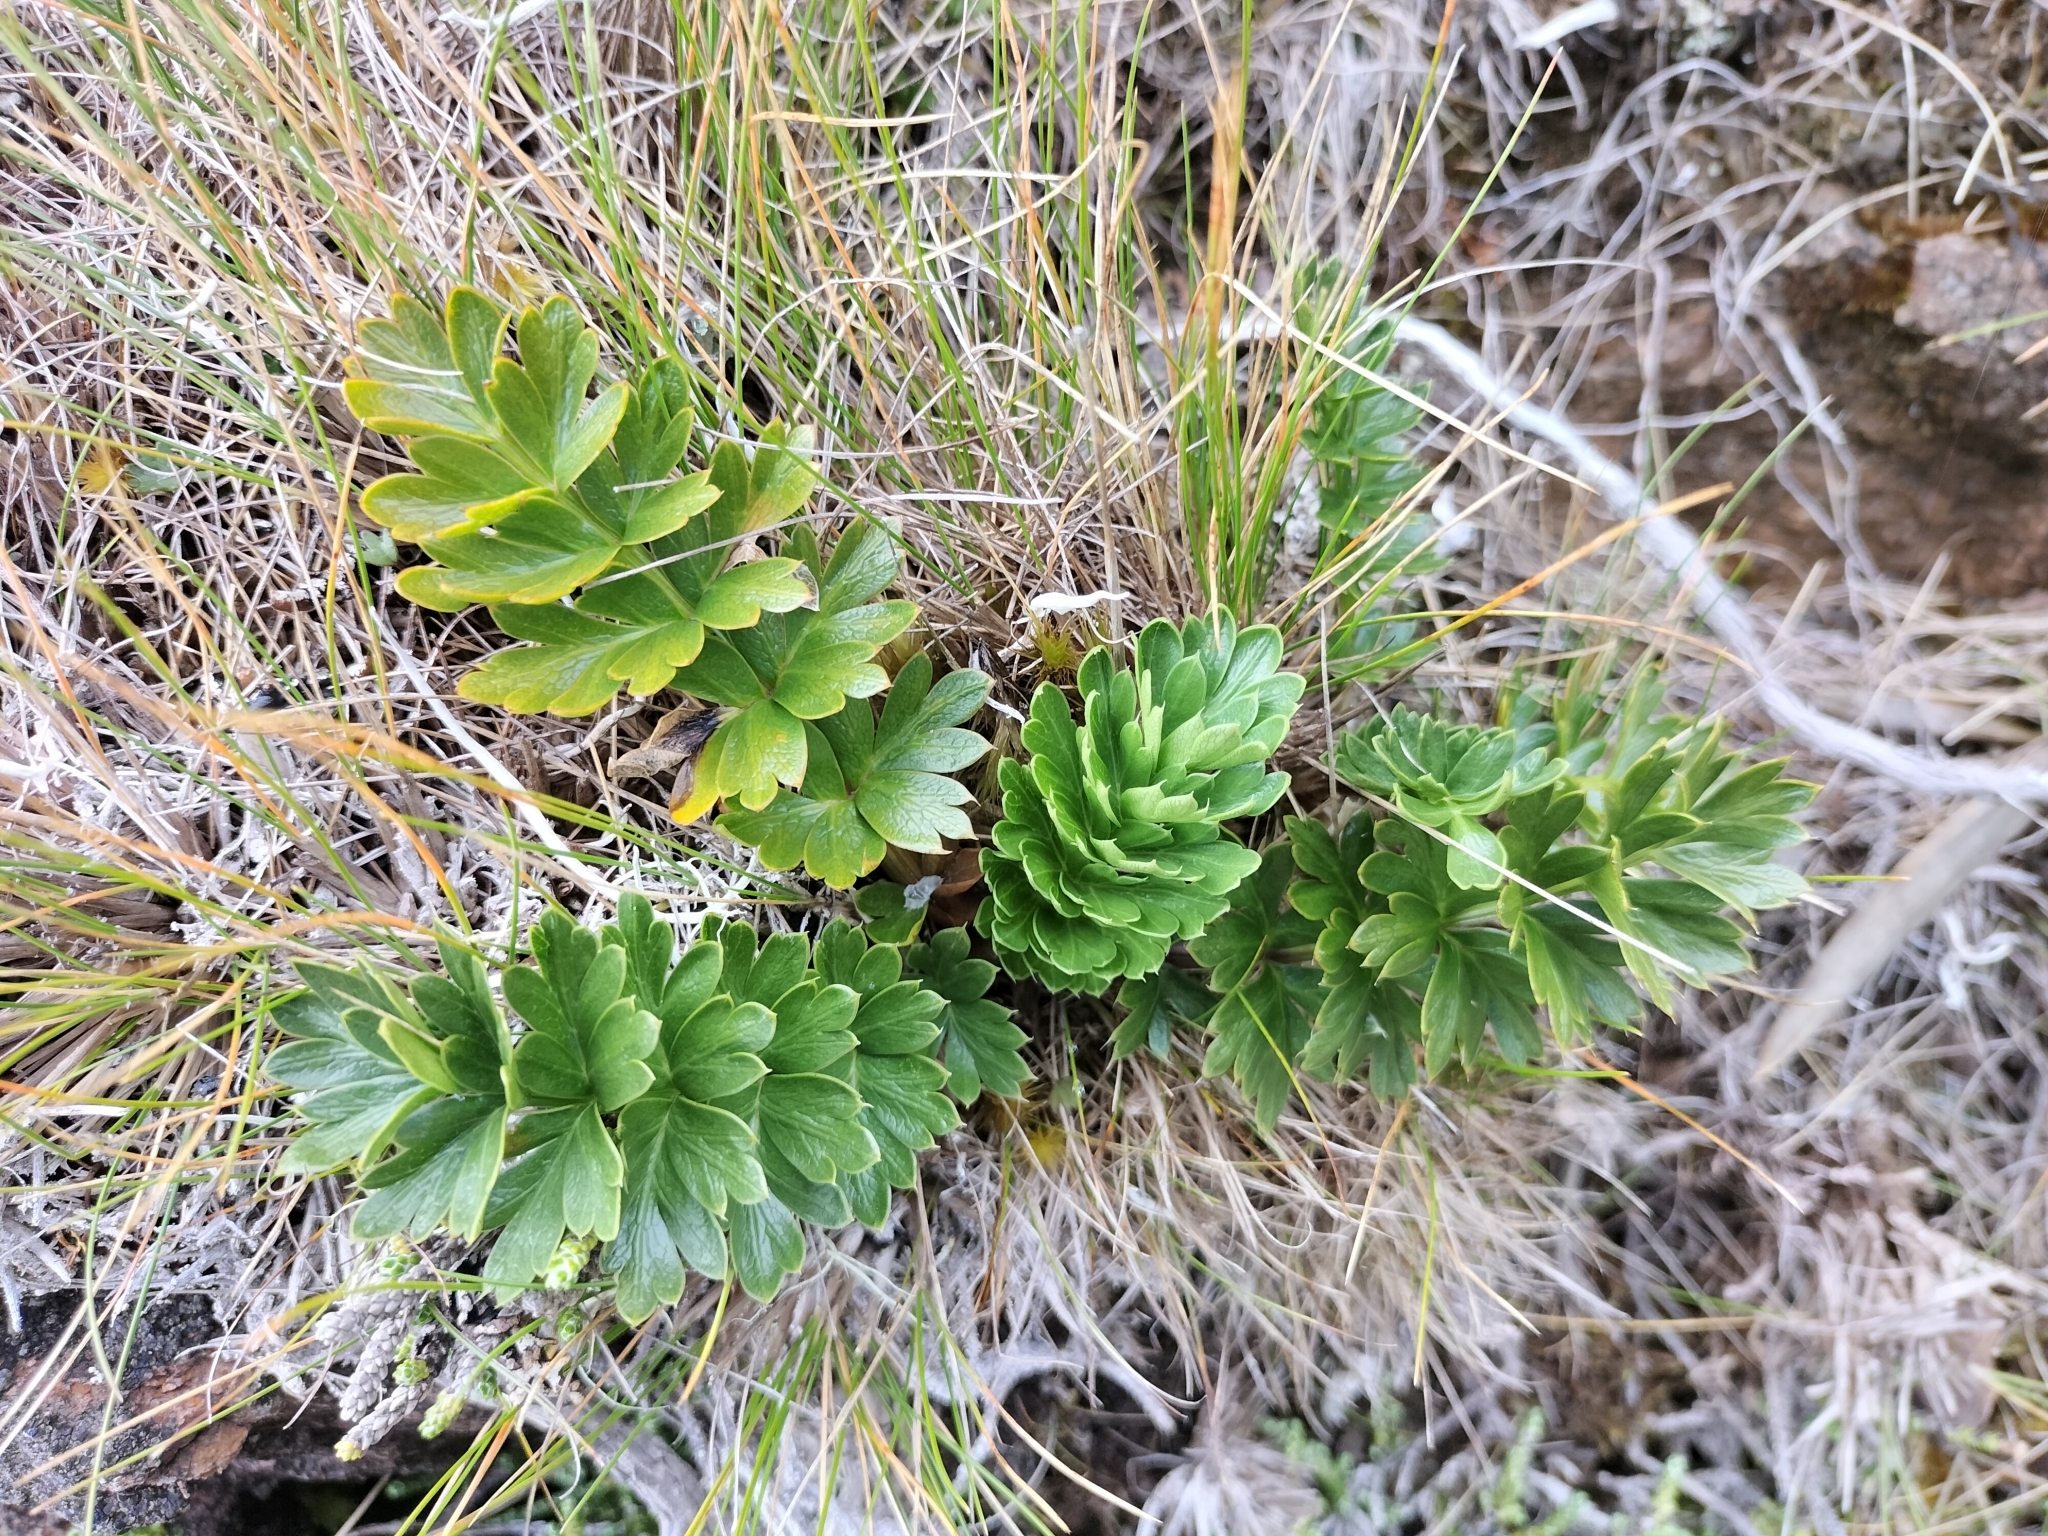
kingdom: Plantae
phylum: Tracheophyta
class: Magnoliopsida
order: Apiales
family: Apiaceae
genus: Anisotome
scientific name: Anisotome pilifera
